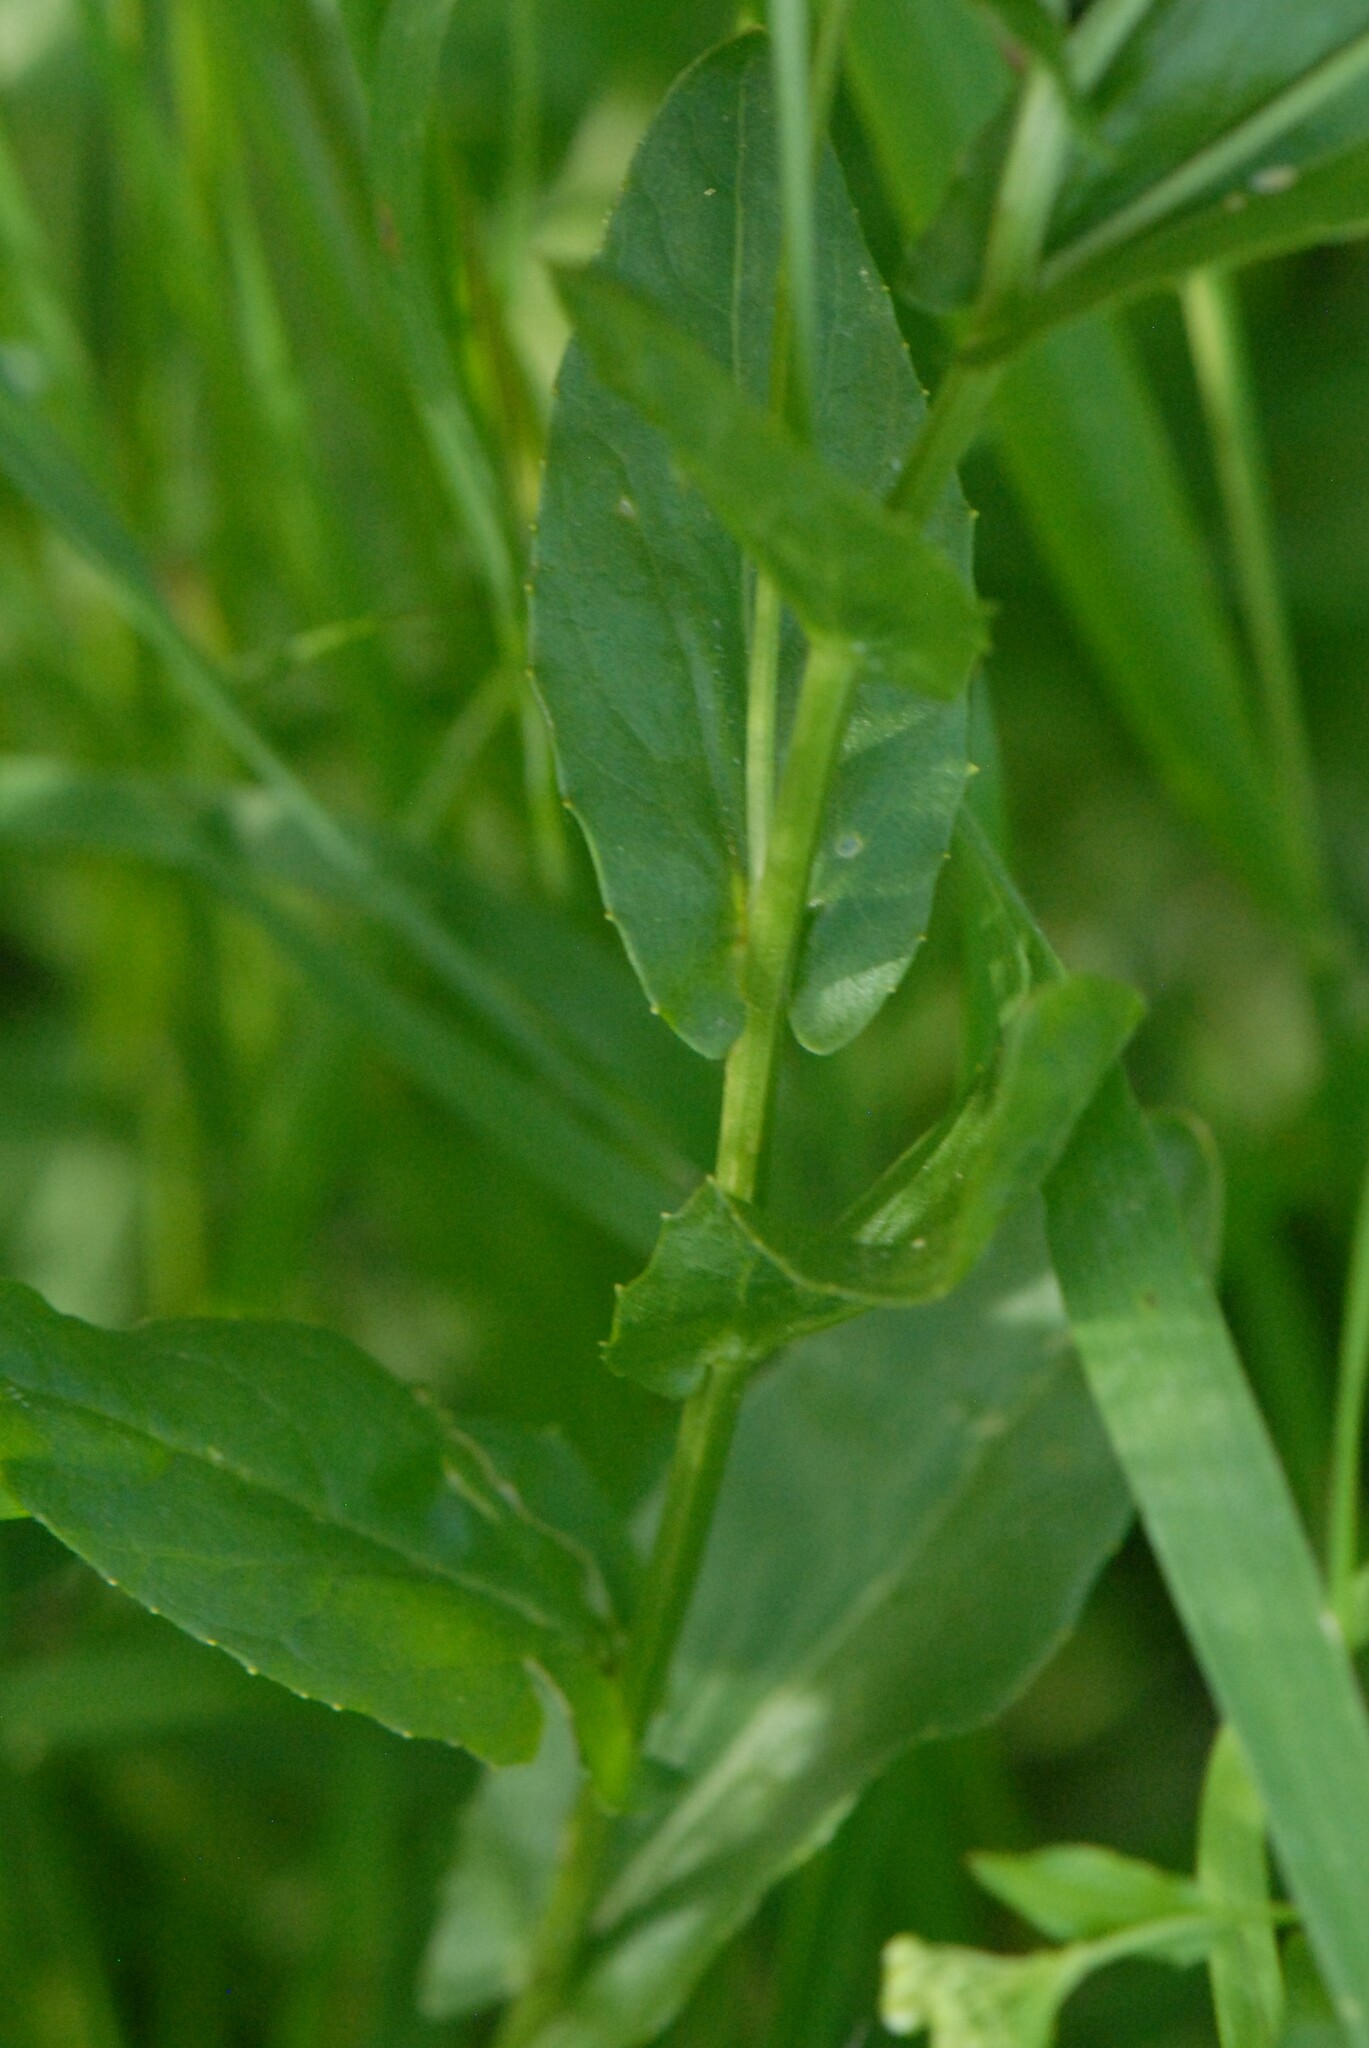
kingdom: Plantae
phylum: Tracheophyta
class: Magnoliopsida
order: Brassicales
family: Brassicaceae
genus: Lepidium
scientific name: Lepidium draba
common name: Hoary cress
